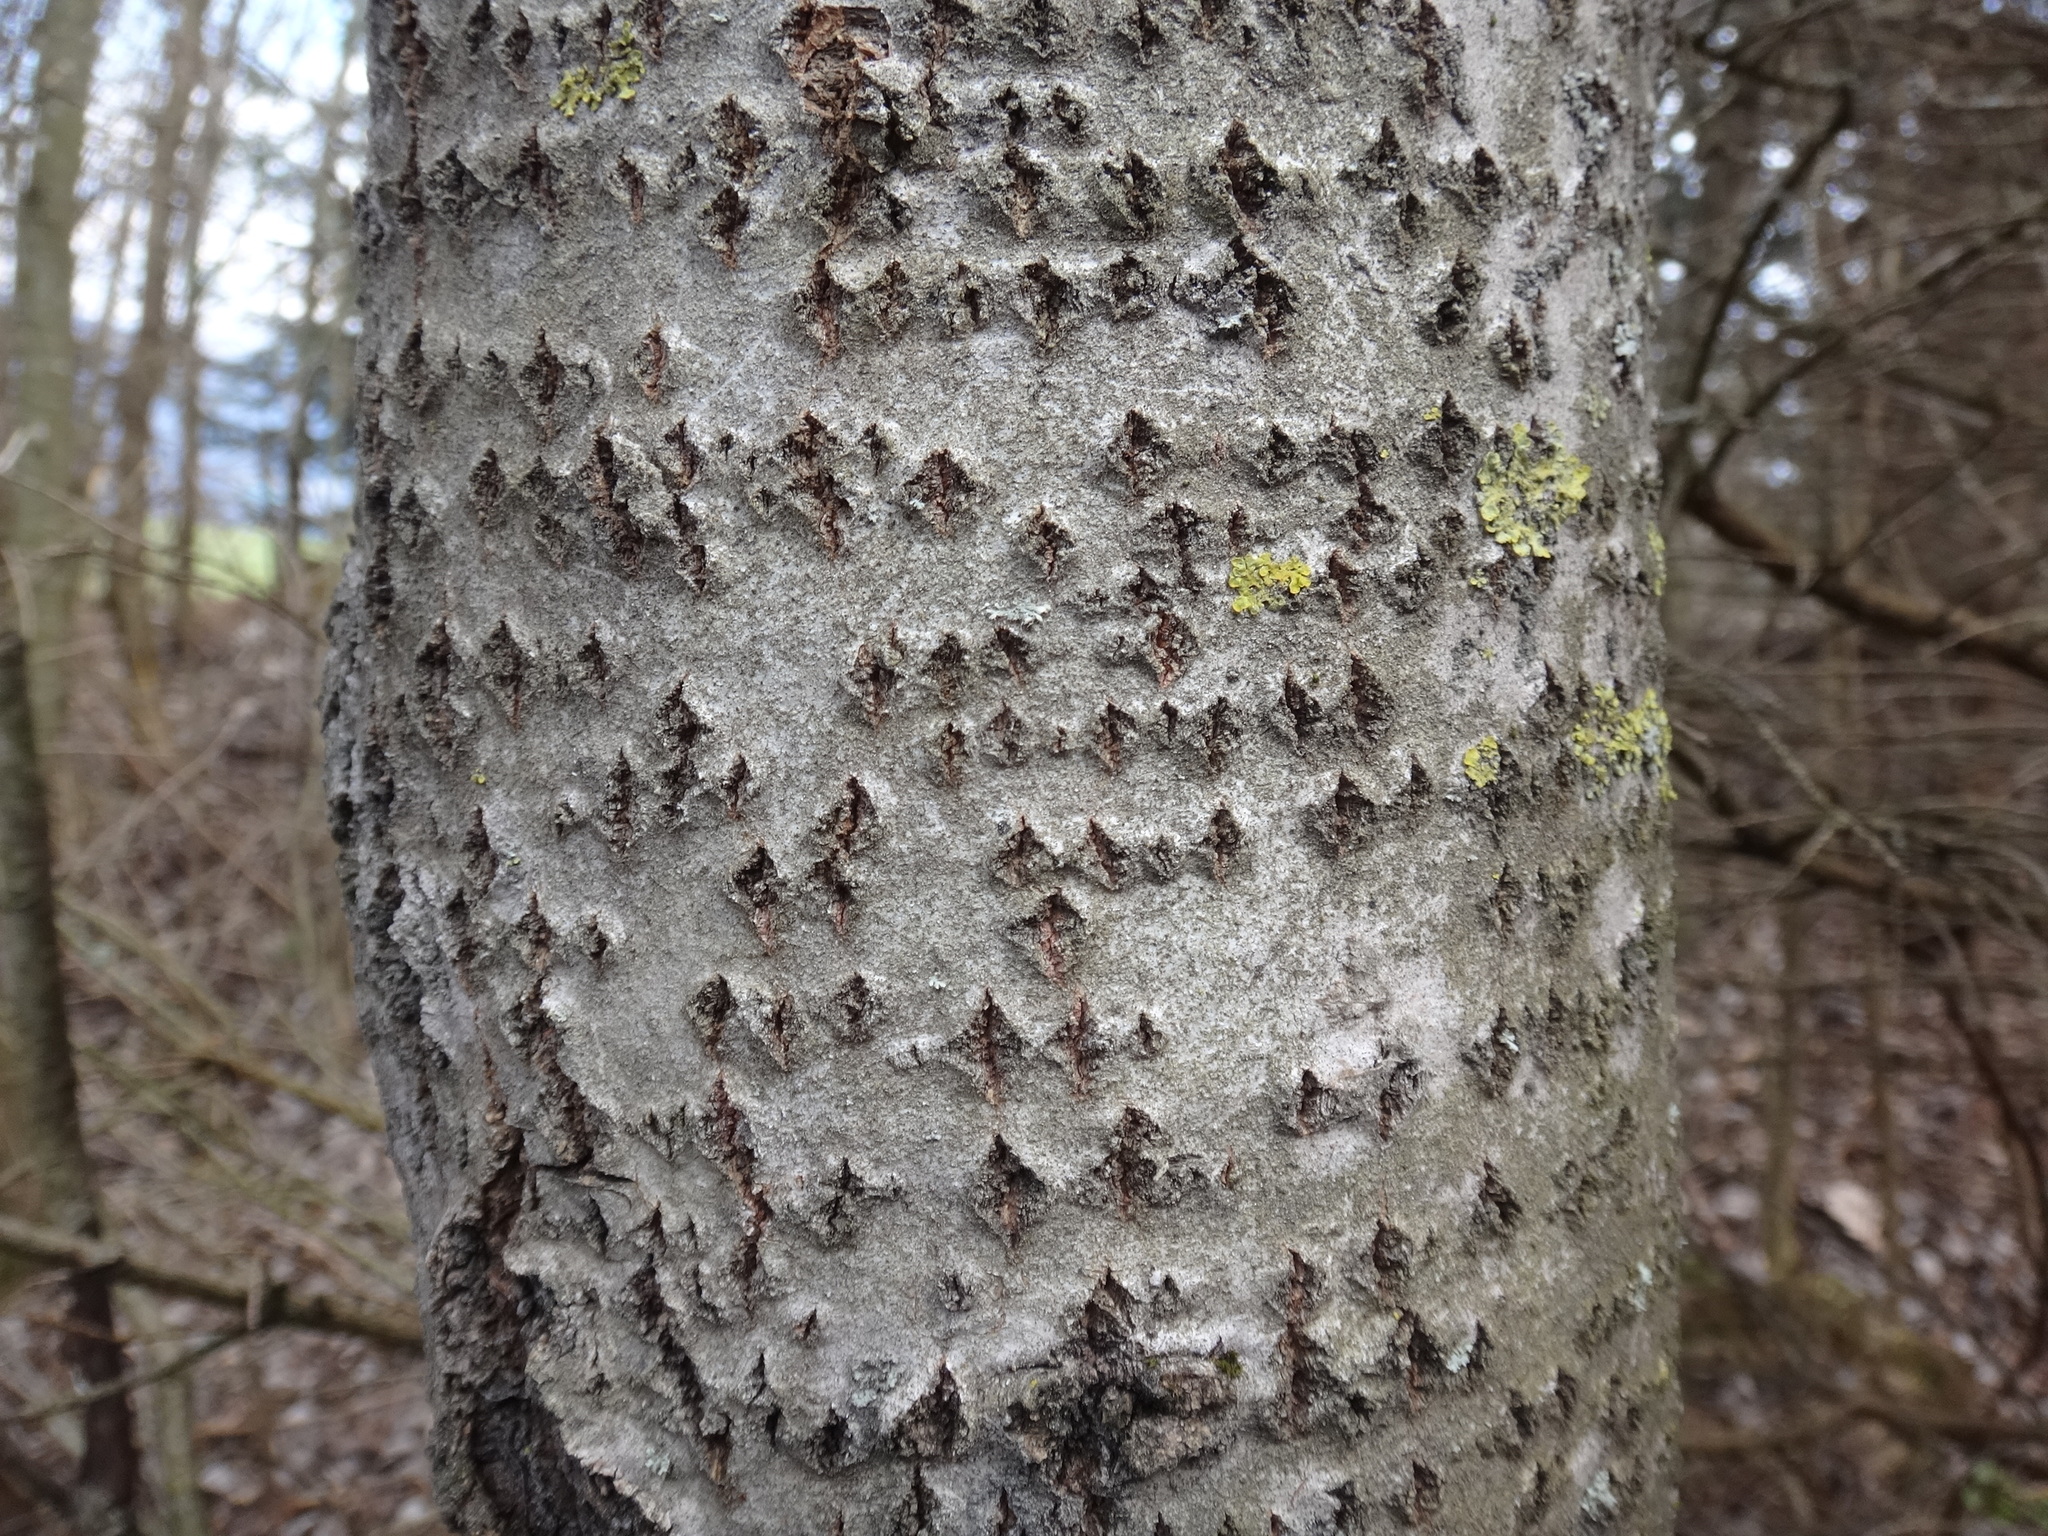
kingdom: Plantae
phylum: Tracheophyta
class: Magnoliopsida
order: Malpighiales
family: Salicaceae
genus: Populus
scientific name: Populus tremula
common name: European aspen
